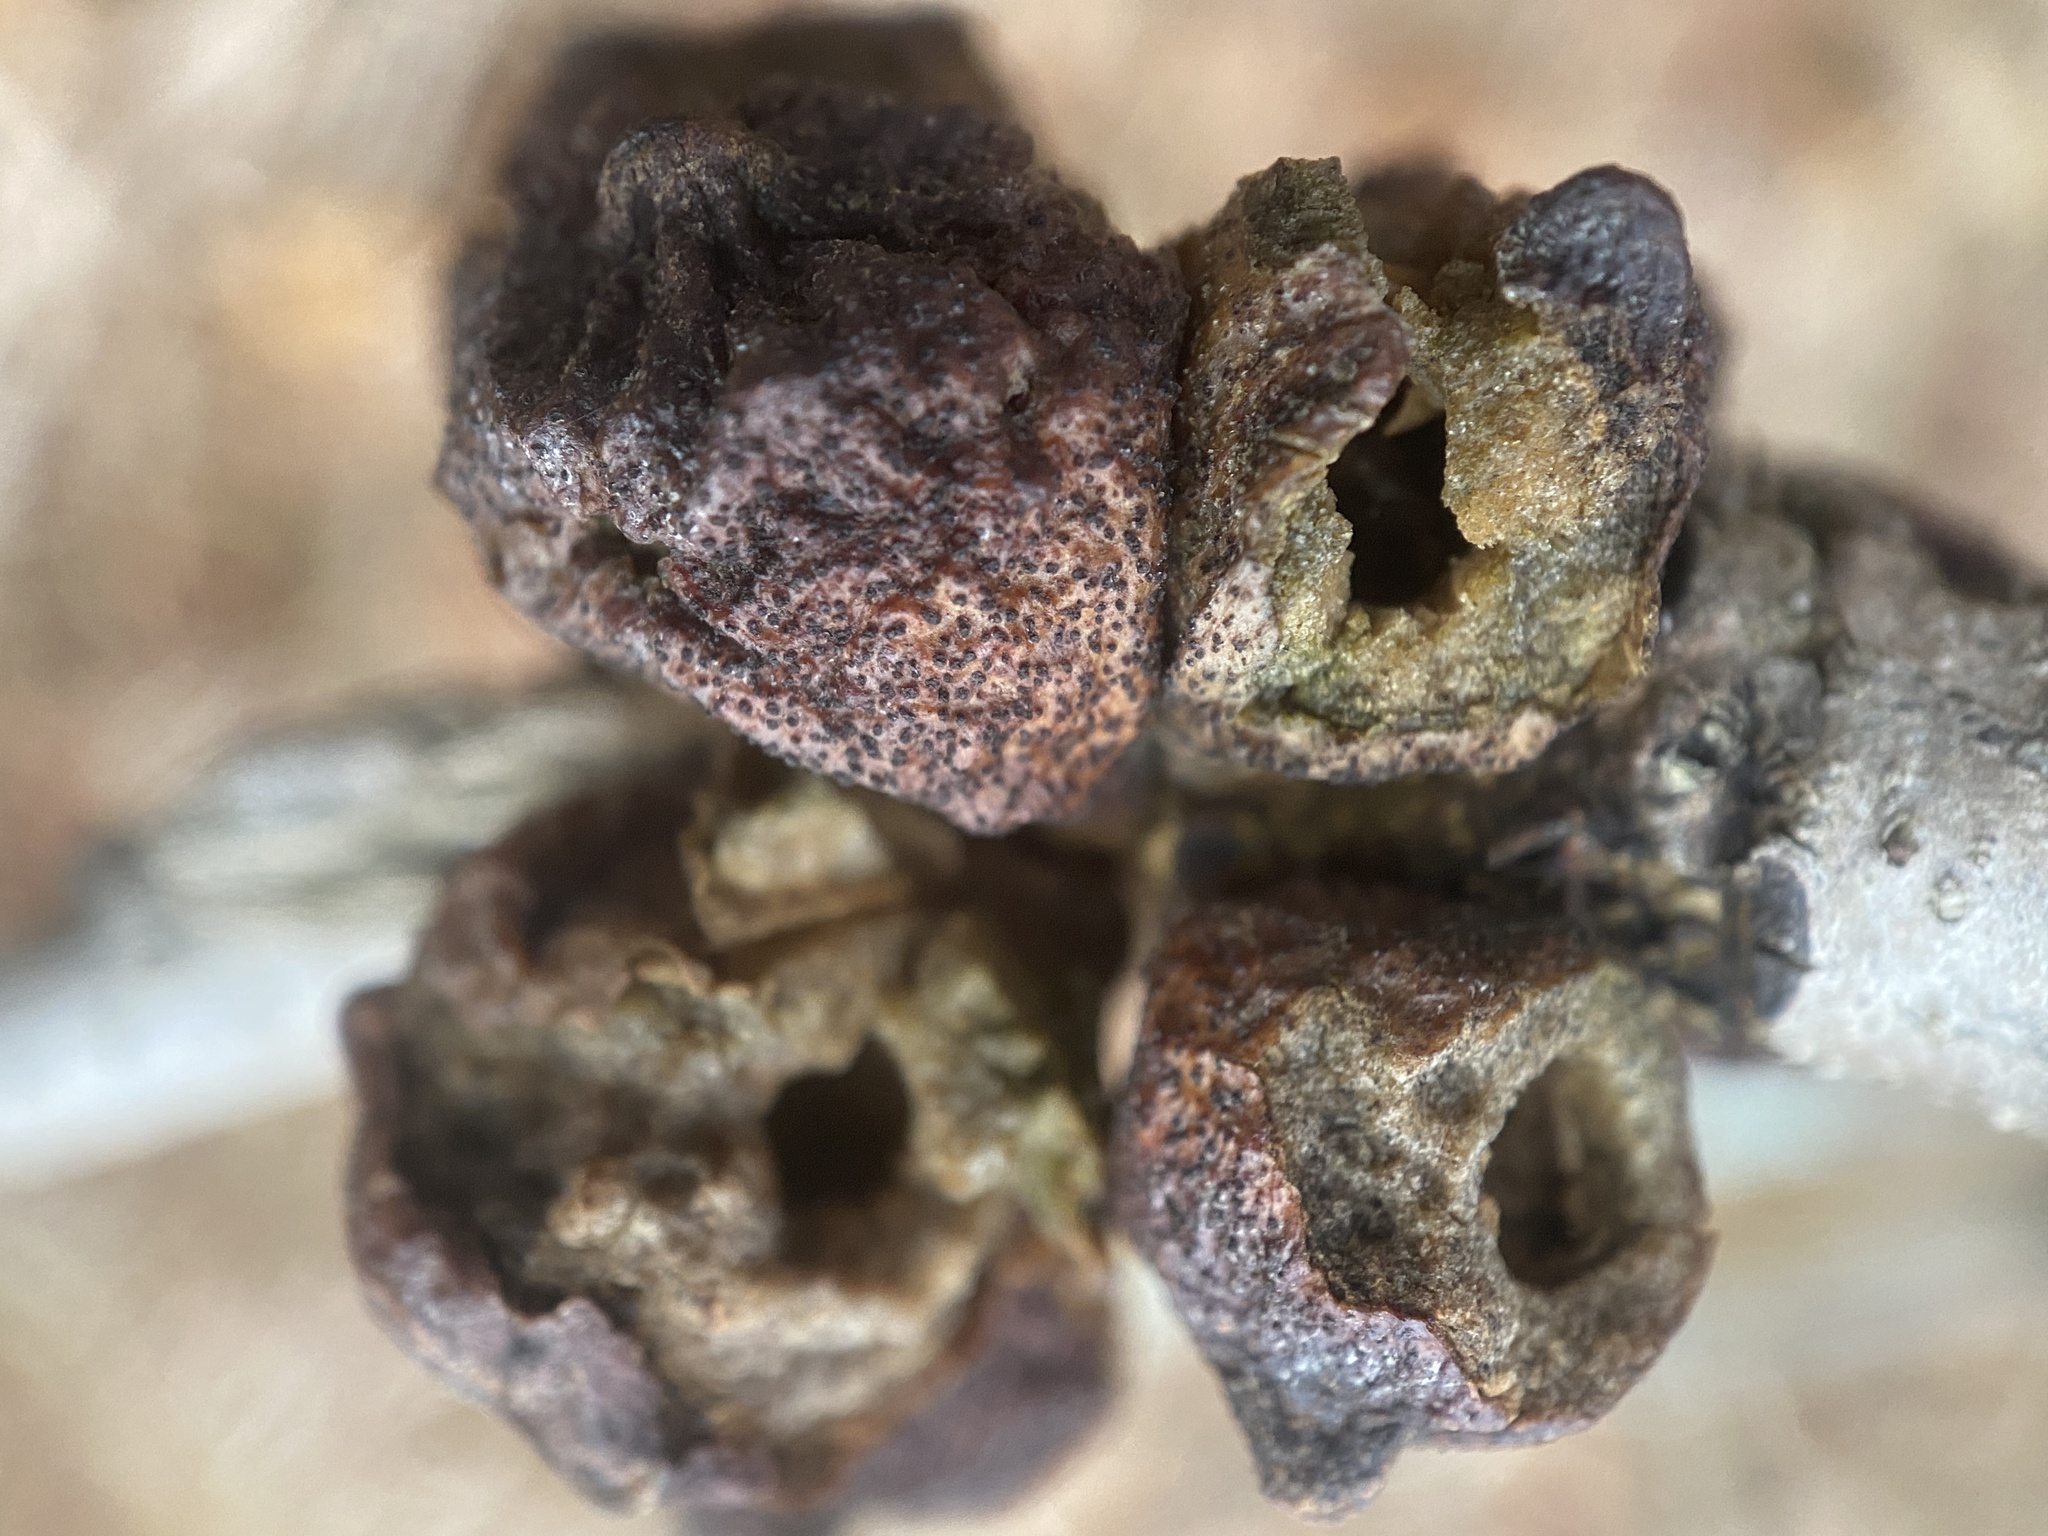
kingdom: Animalia
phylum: Arthropoda
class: Insecta
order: Hymenoptera
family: Cynipidae
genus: Disholcaspis
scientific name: Disholcaspis
